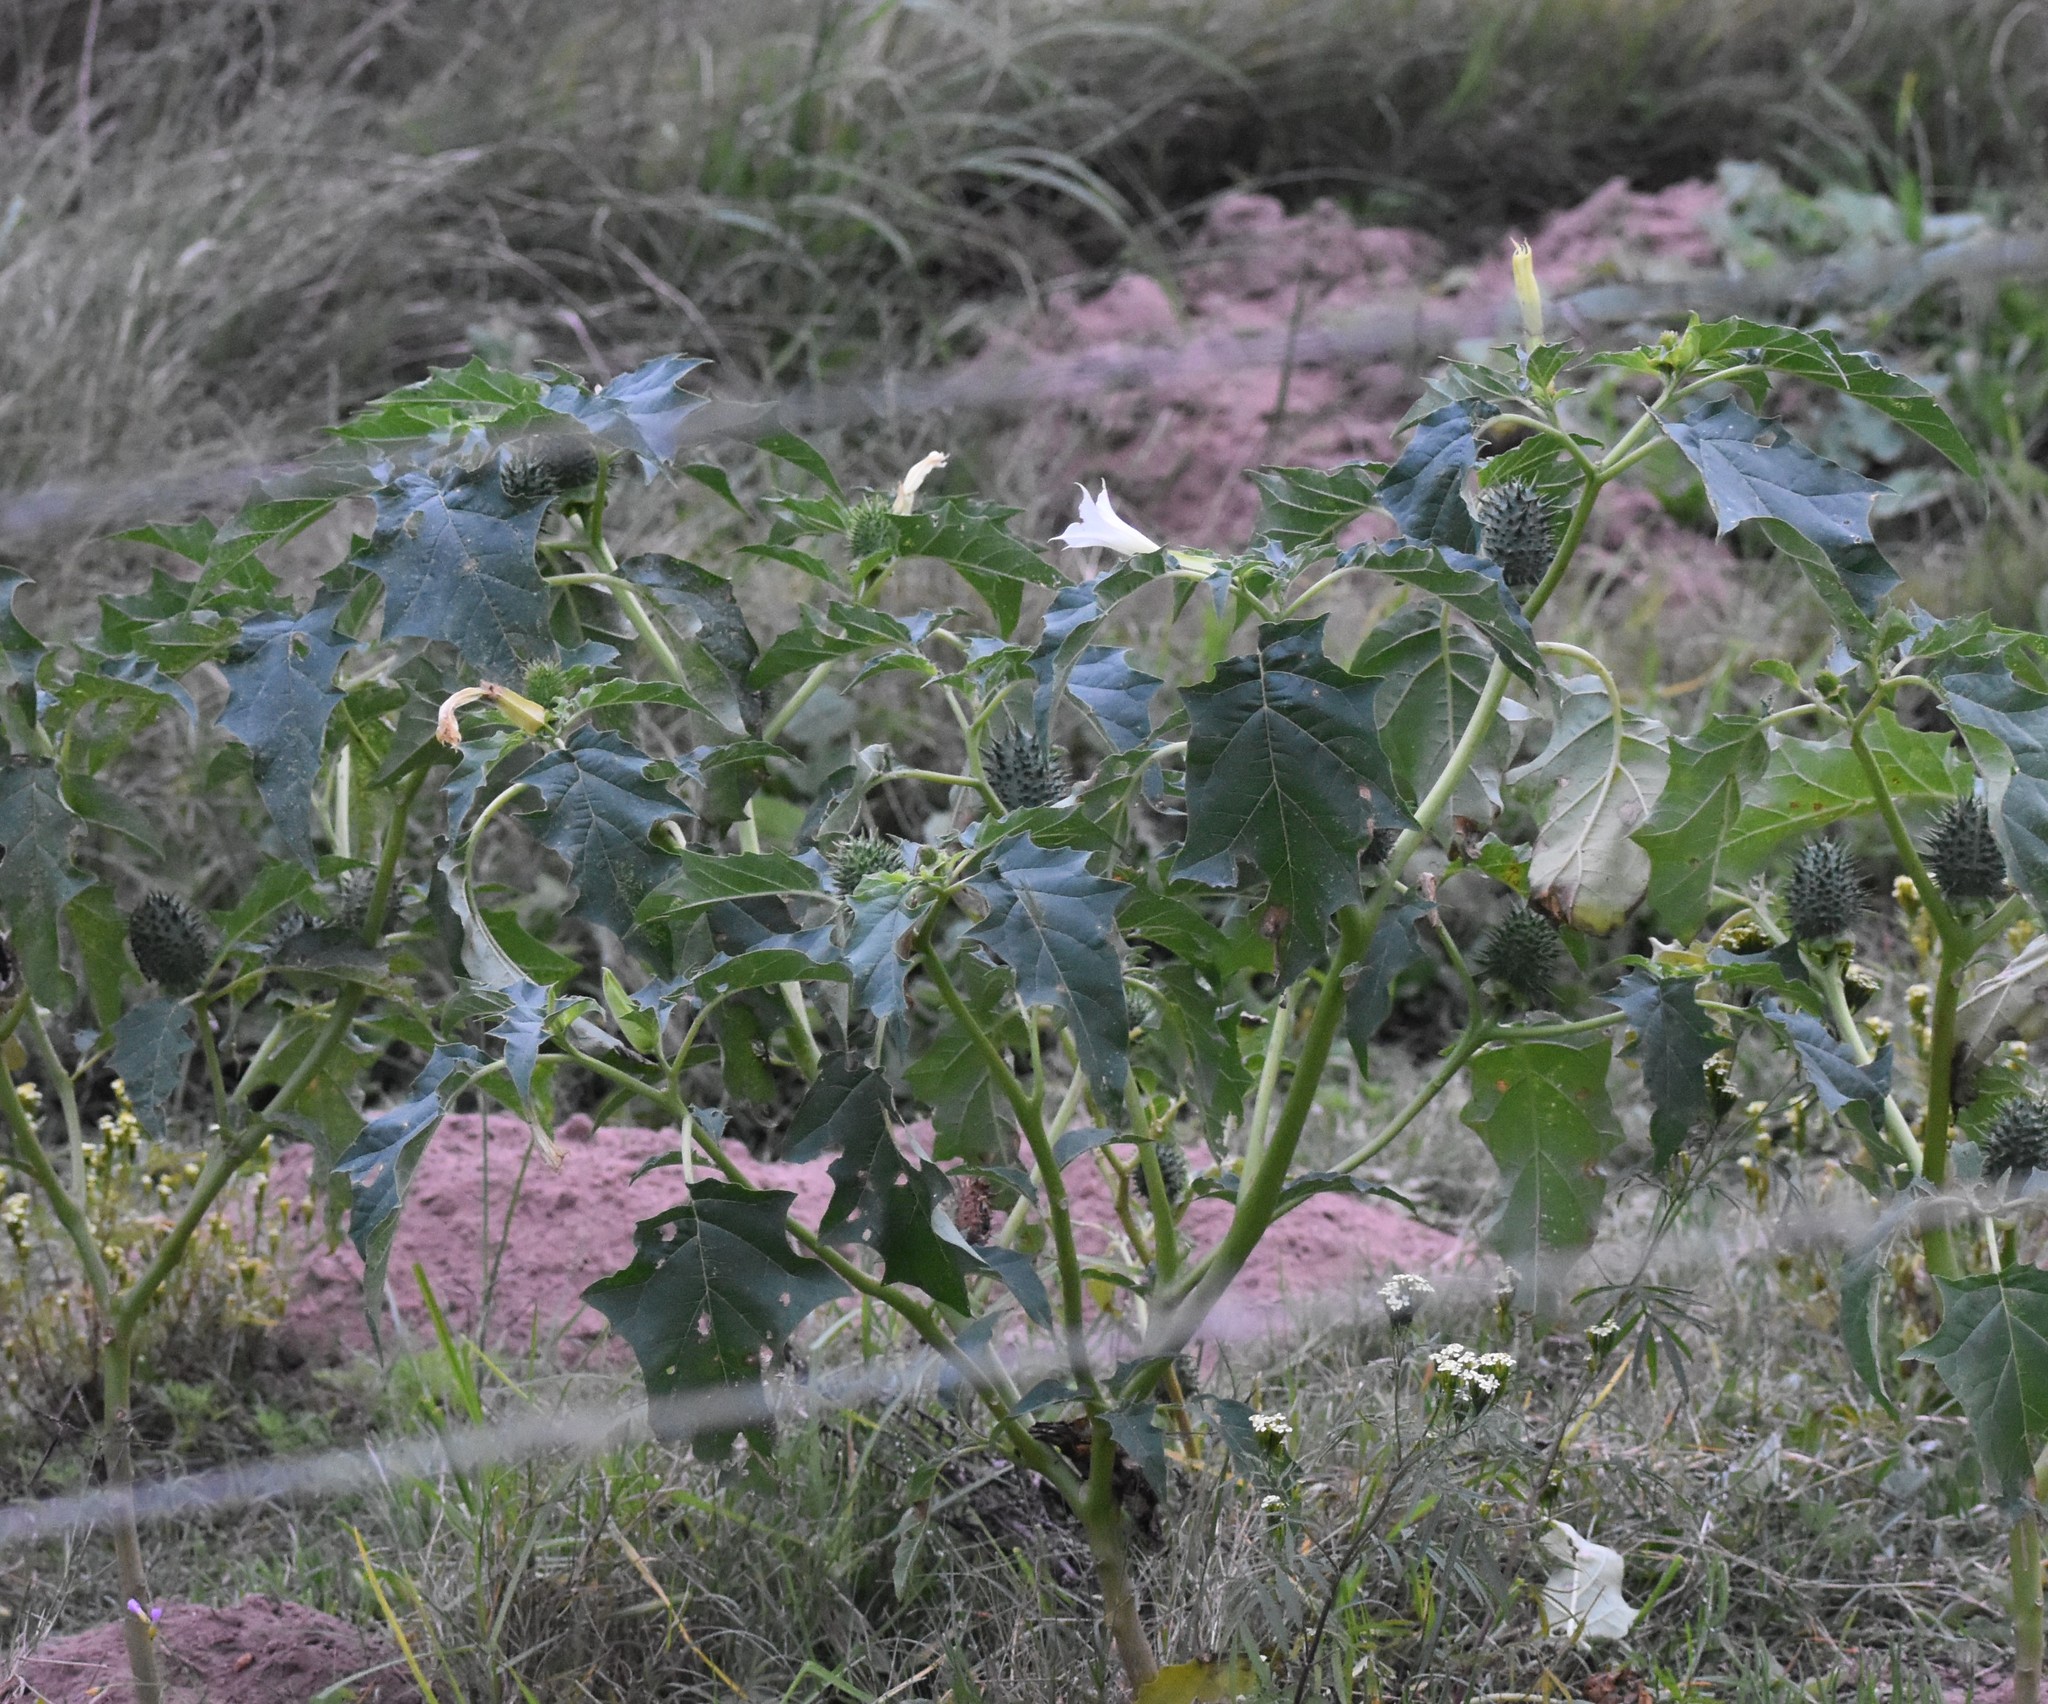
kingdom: Plantae
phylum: Tracheophyta
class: Magnoliopsida
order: Solanales
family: Solanaceae
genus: Datura
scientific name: Datura stramonium
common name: Thorn-apple
